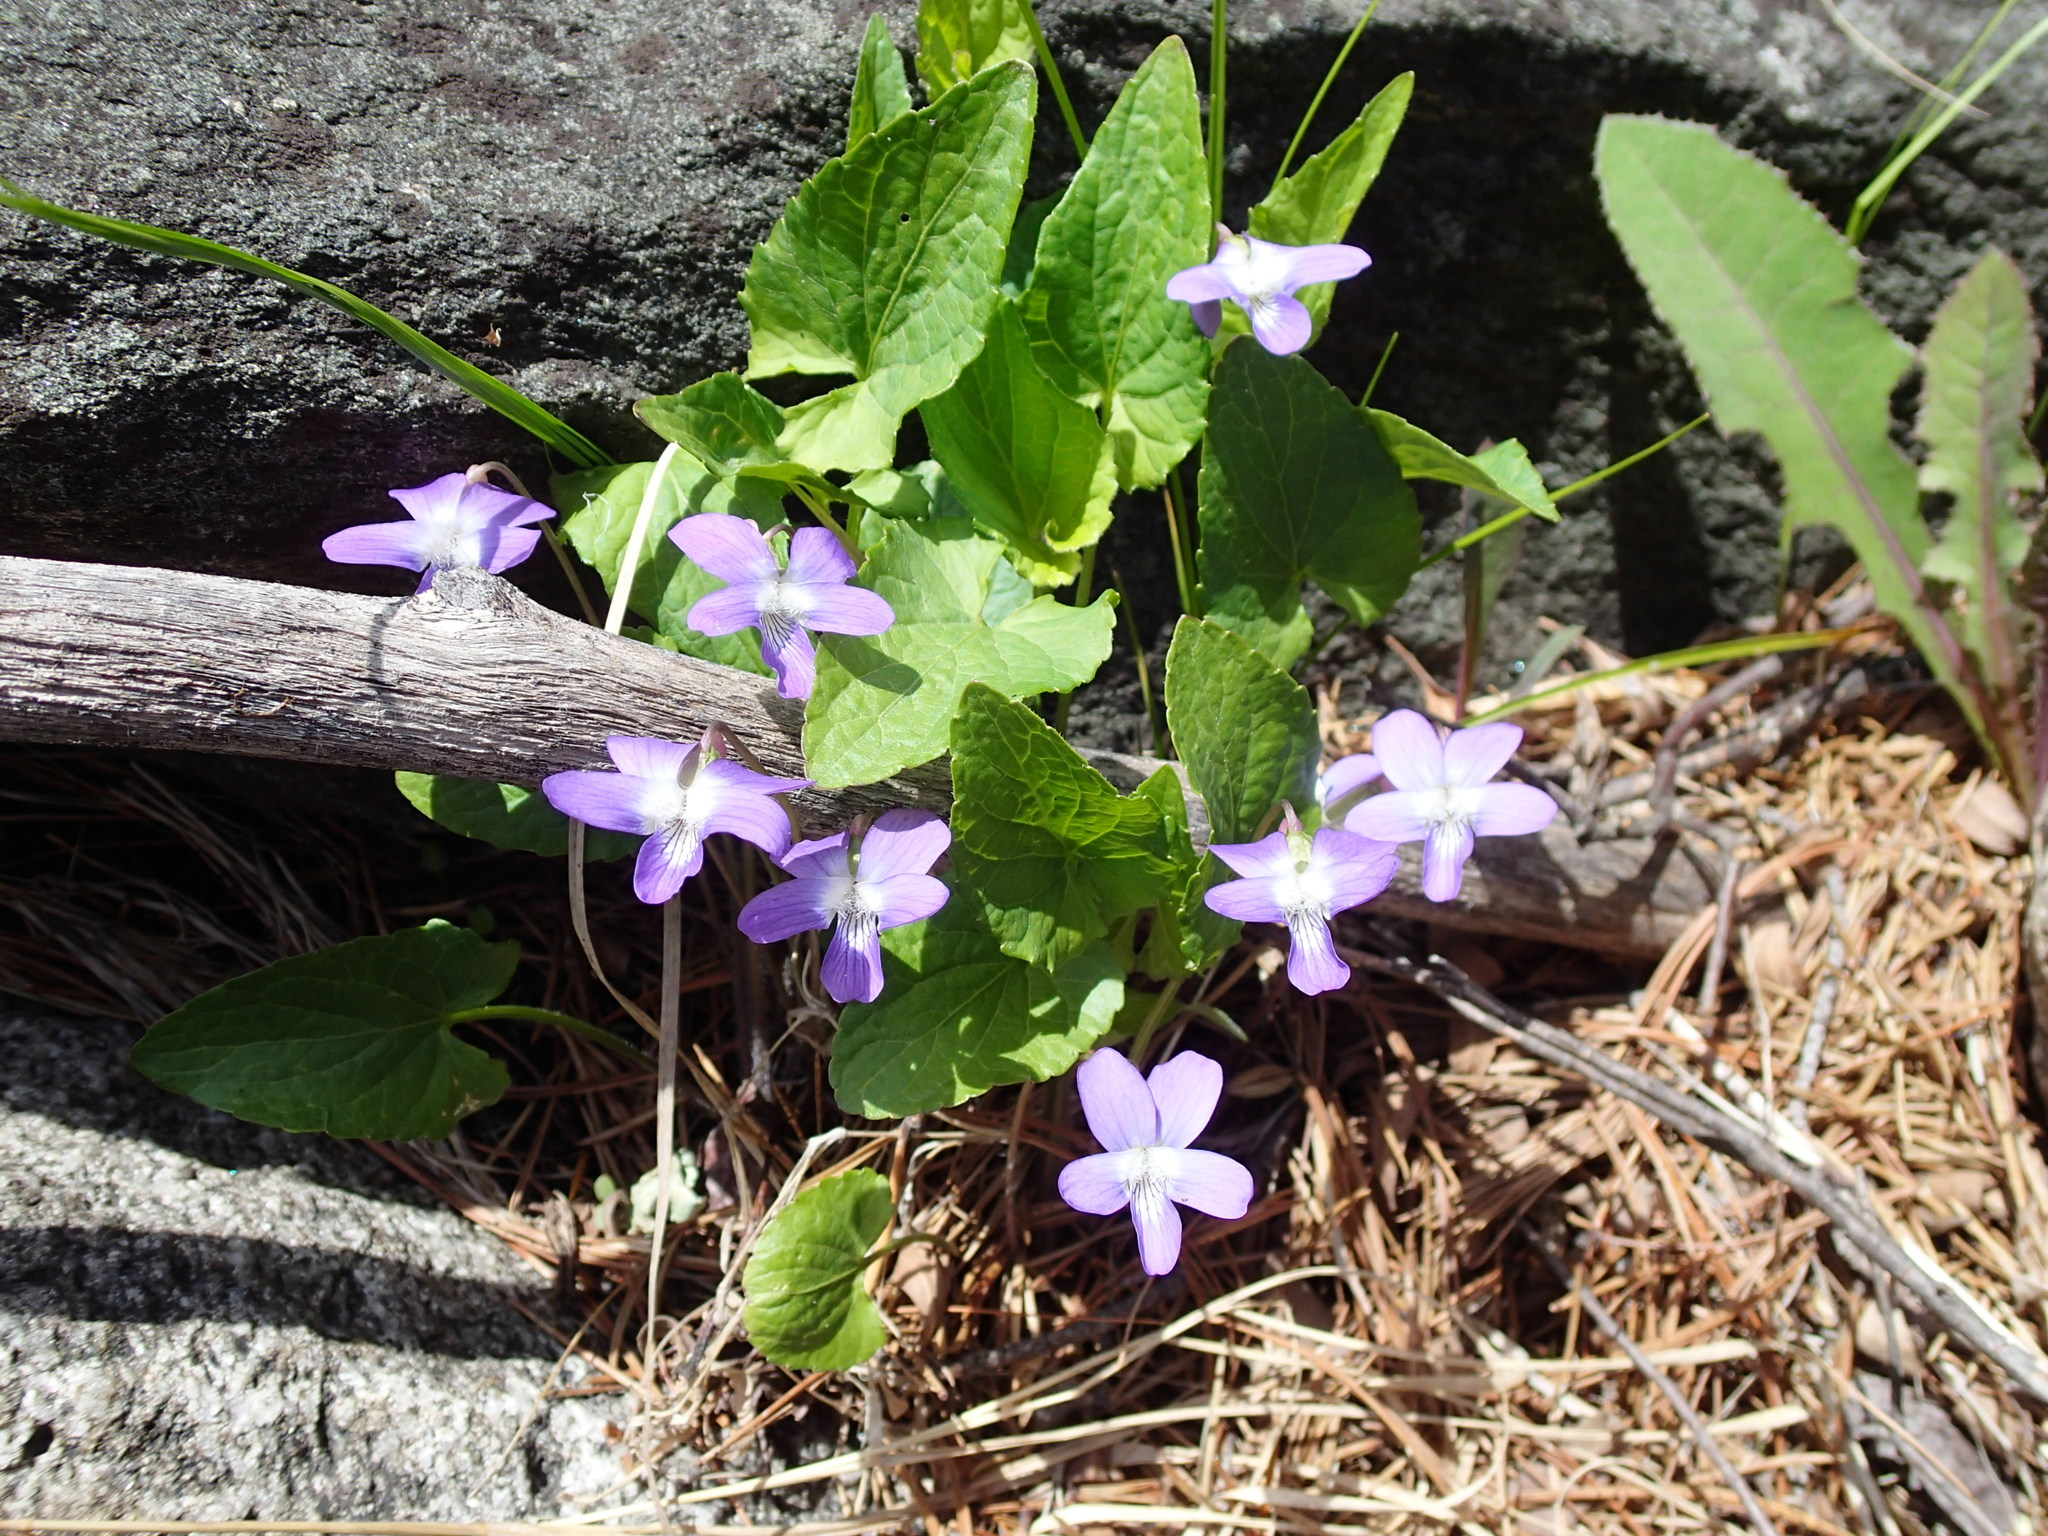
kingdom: Plantae
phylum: Tracheophyta
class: Magnoliopsida
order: Malpighiales
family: Violaceae
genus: Viola
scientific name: Viola novae-angliae
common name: New england blue violet
